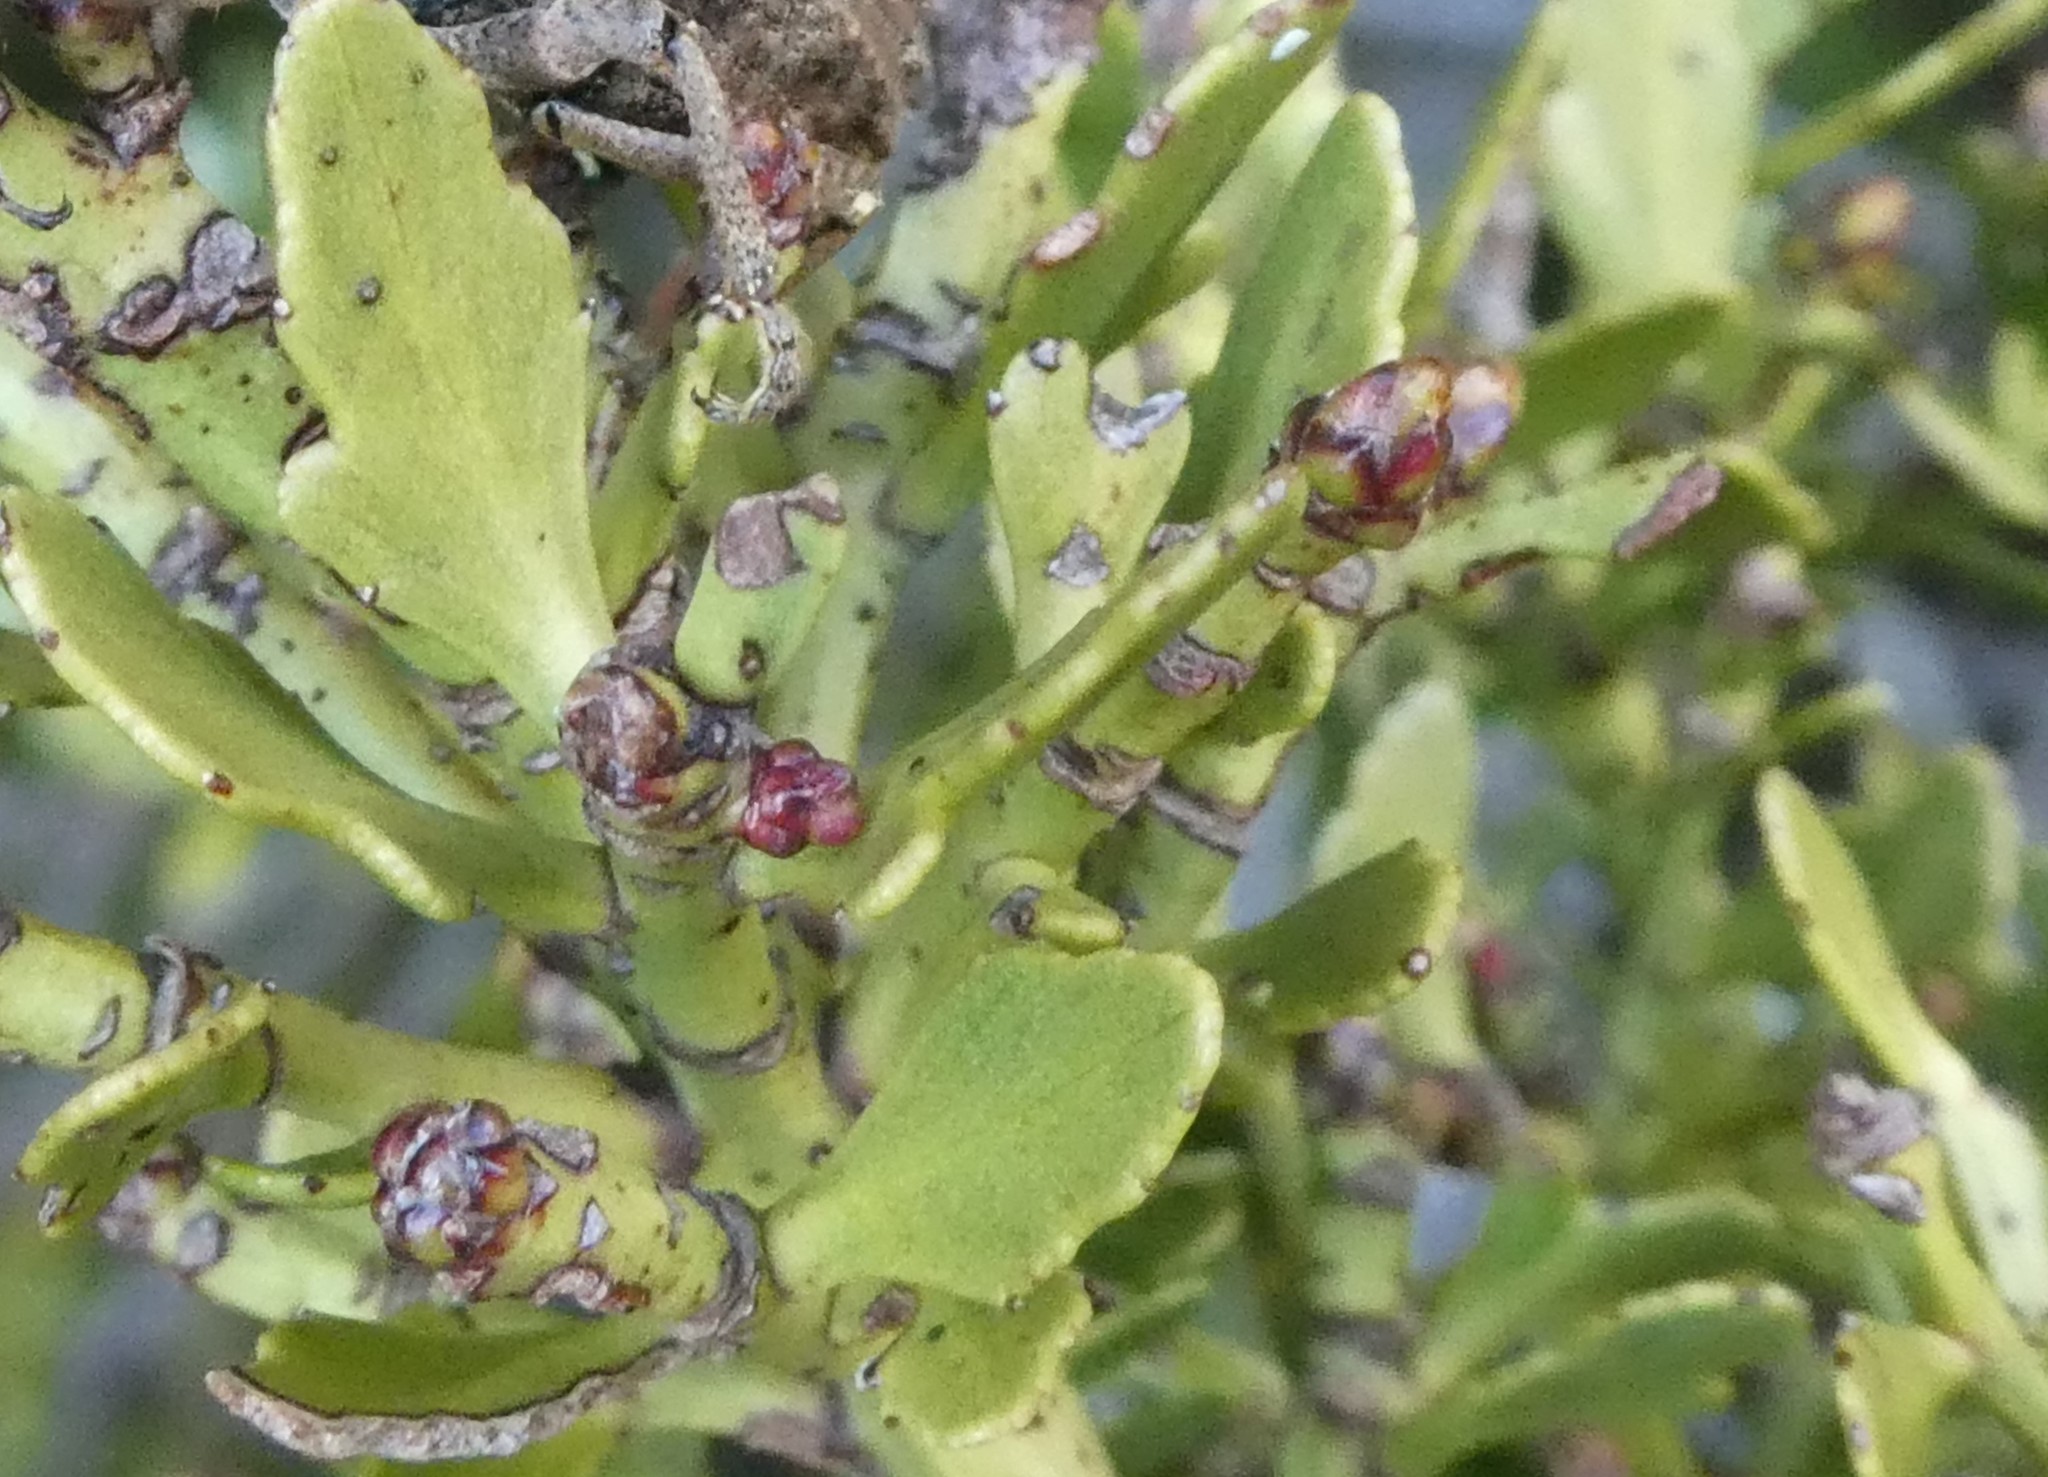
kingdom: Plantae
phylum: Tracheophyta
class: Pinopsida
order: Pinales
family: Phyllocladaceae
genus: Phyllocladus
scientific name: Phyllocladus trichomanoides
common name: Celery pine
